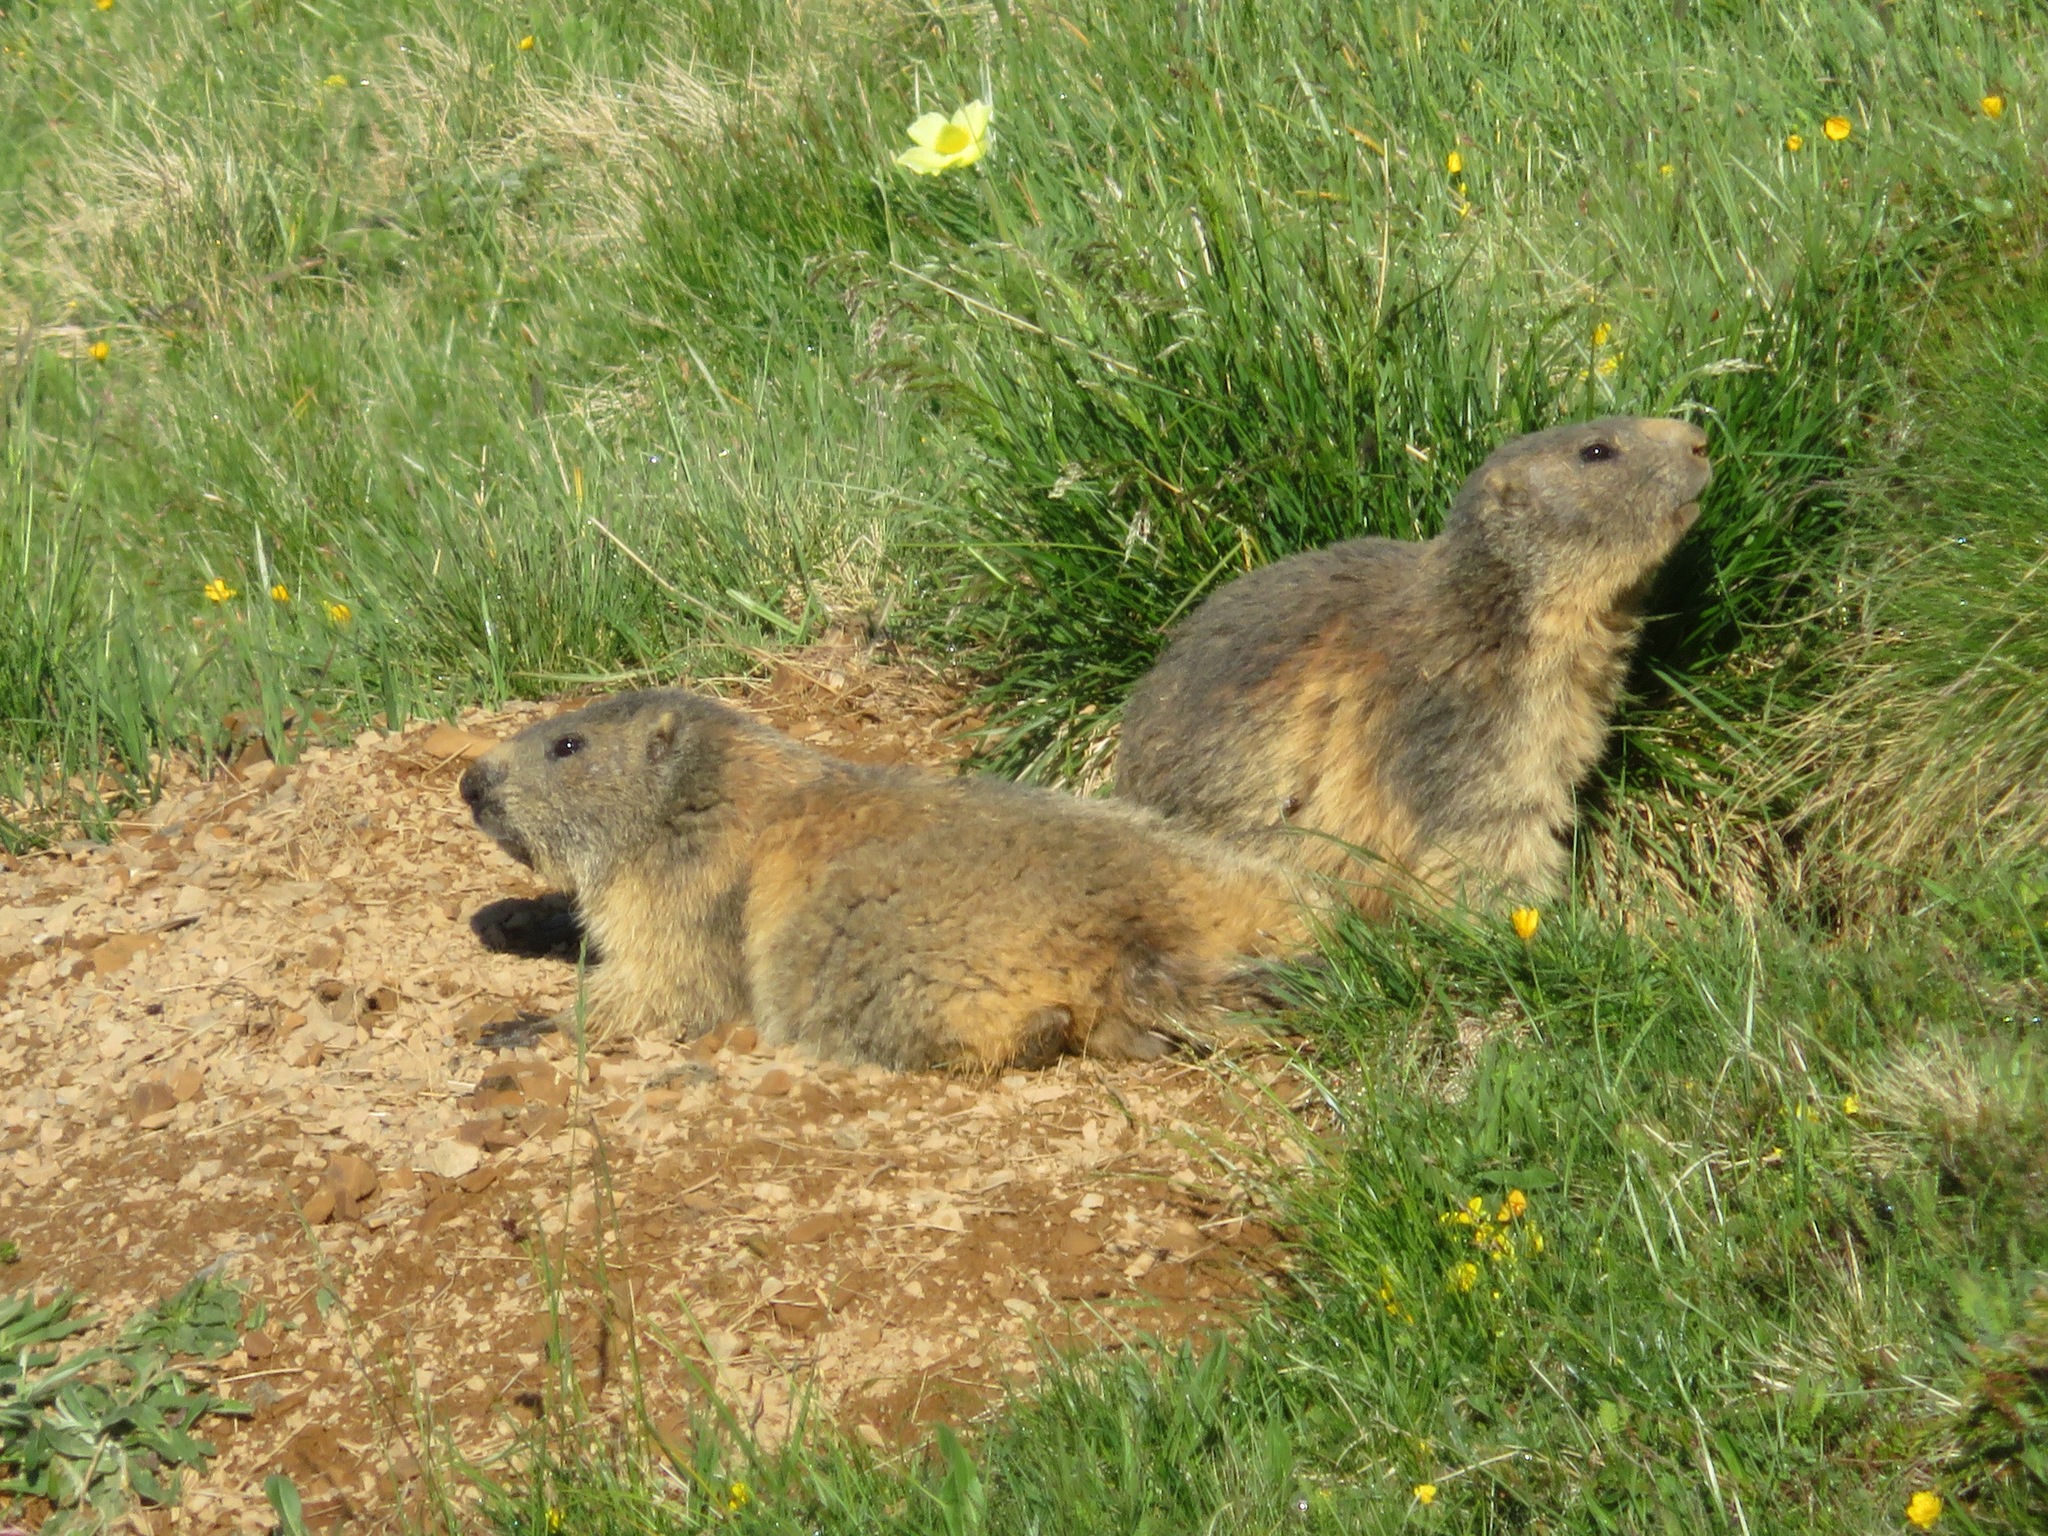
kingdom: Animalia
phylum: Chordata
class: Mammalia
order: Rodentia
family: Sciuridae
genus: Marmota
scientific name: Marmota marmota
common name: Alpine marmot
